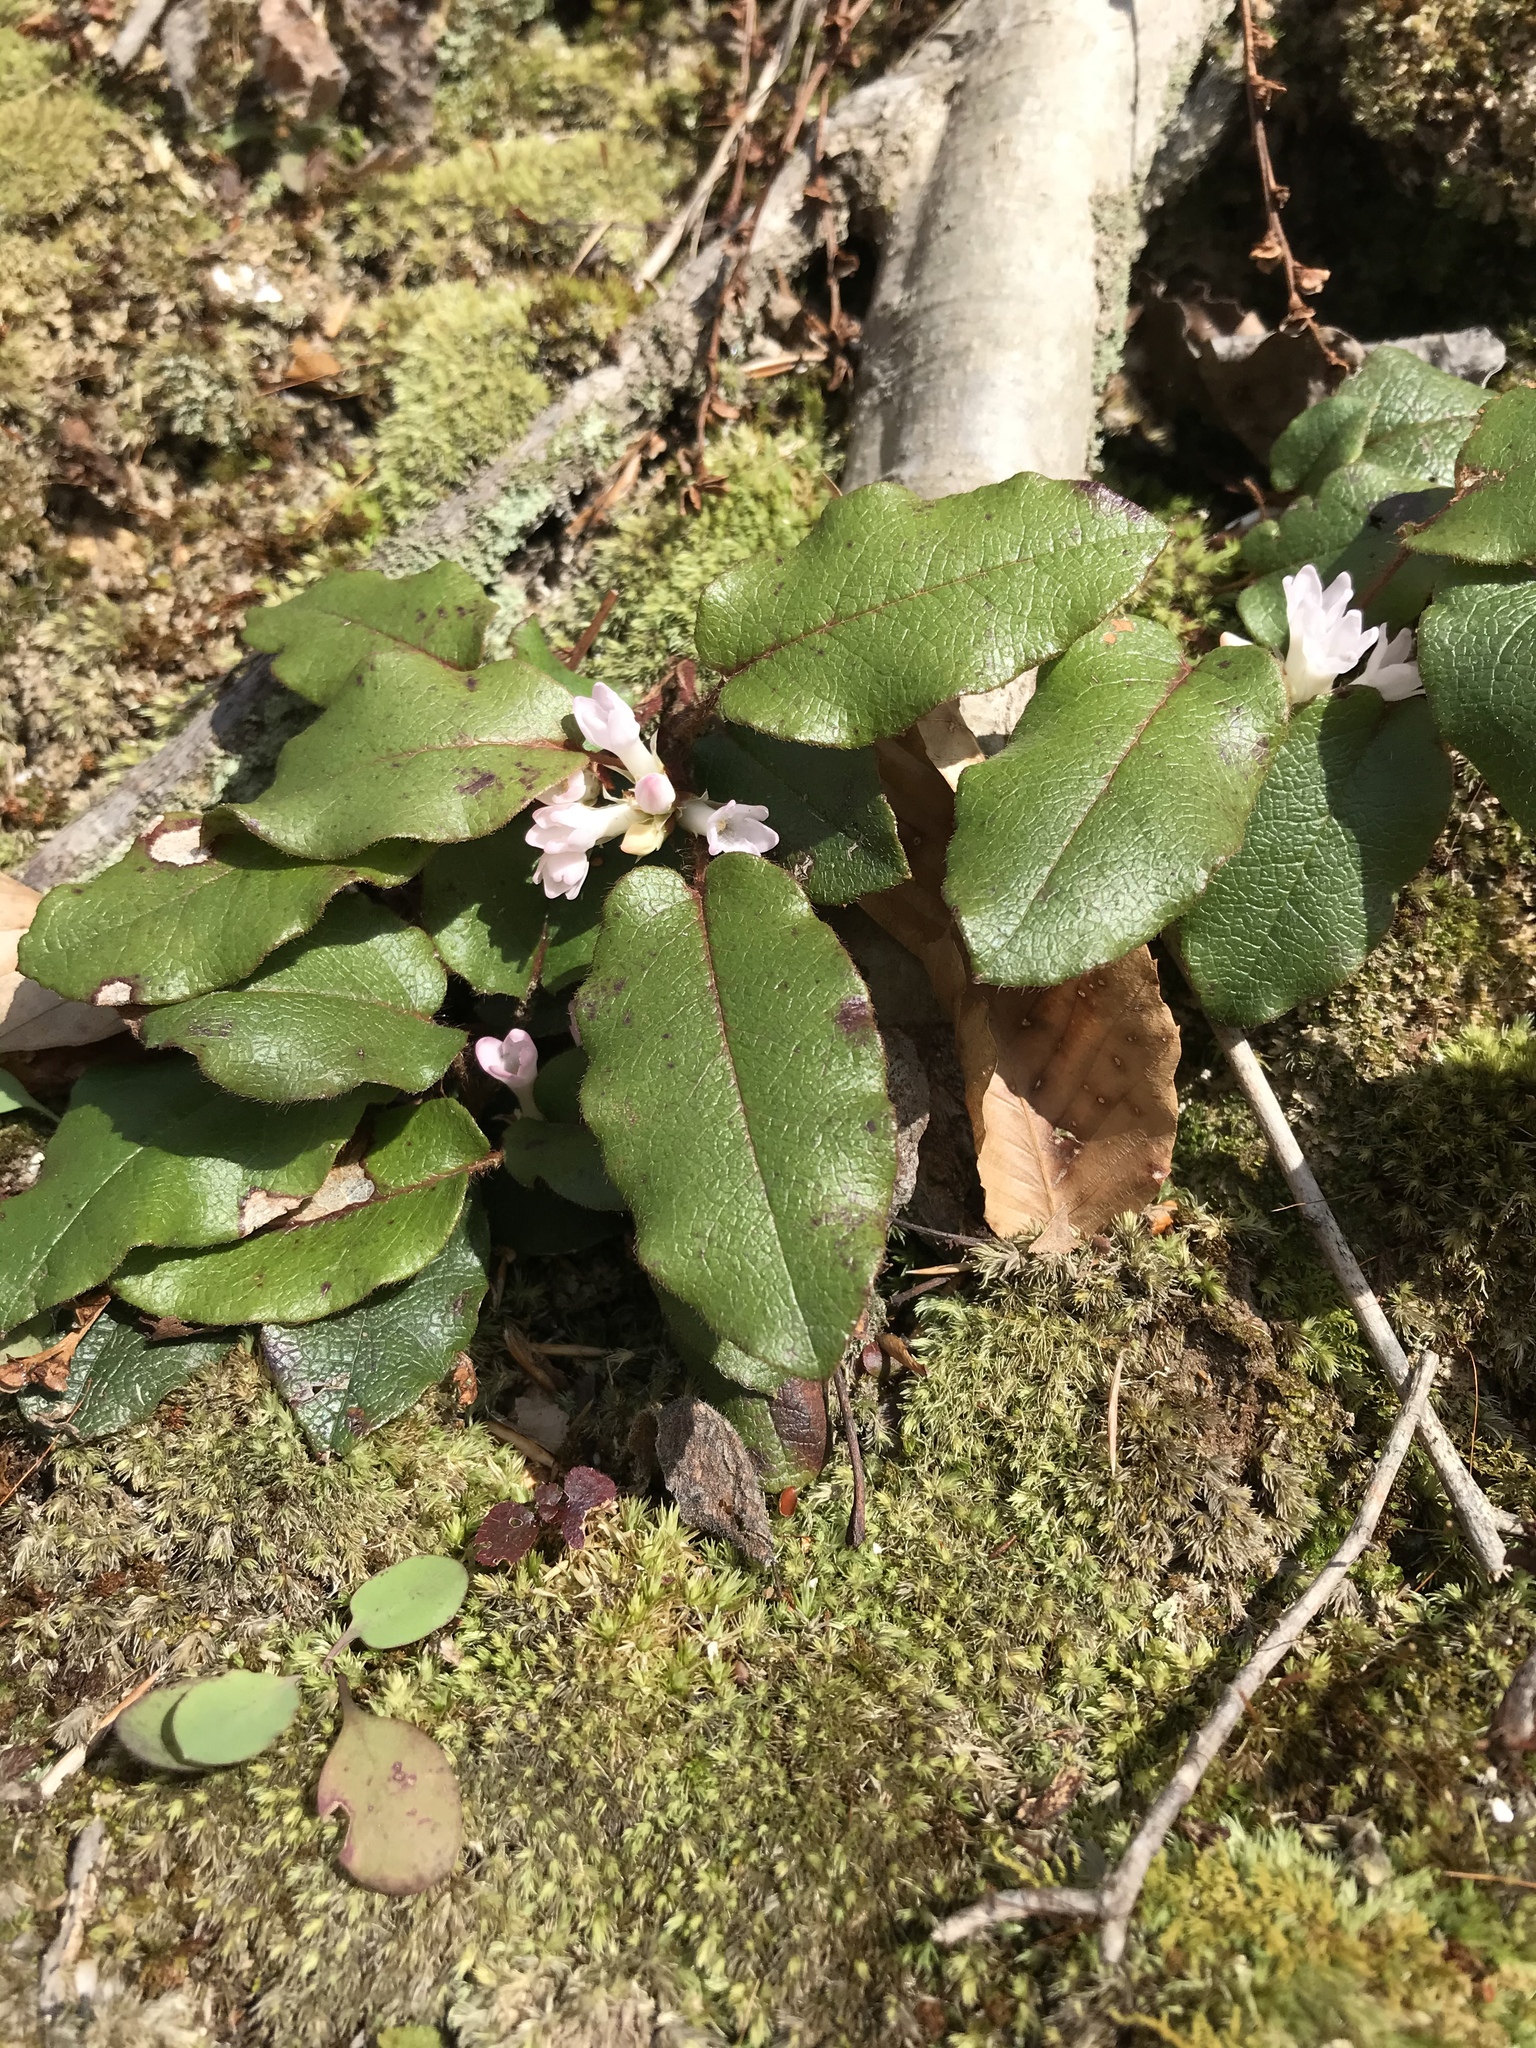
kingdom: Plantae
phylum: Tracheophyta
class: Magnoliopsida
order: Ericales
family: Ericaceae
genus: Epigaea
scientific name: Epigaea repens
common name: Gravelroot
